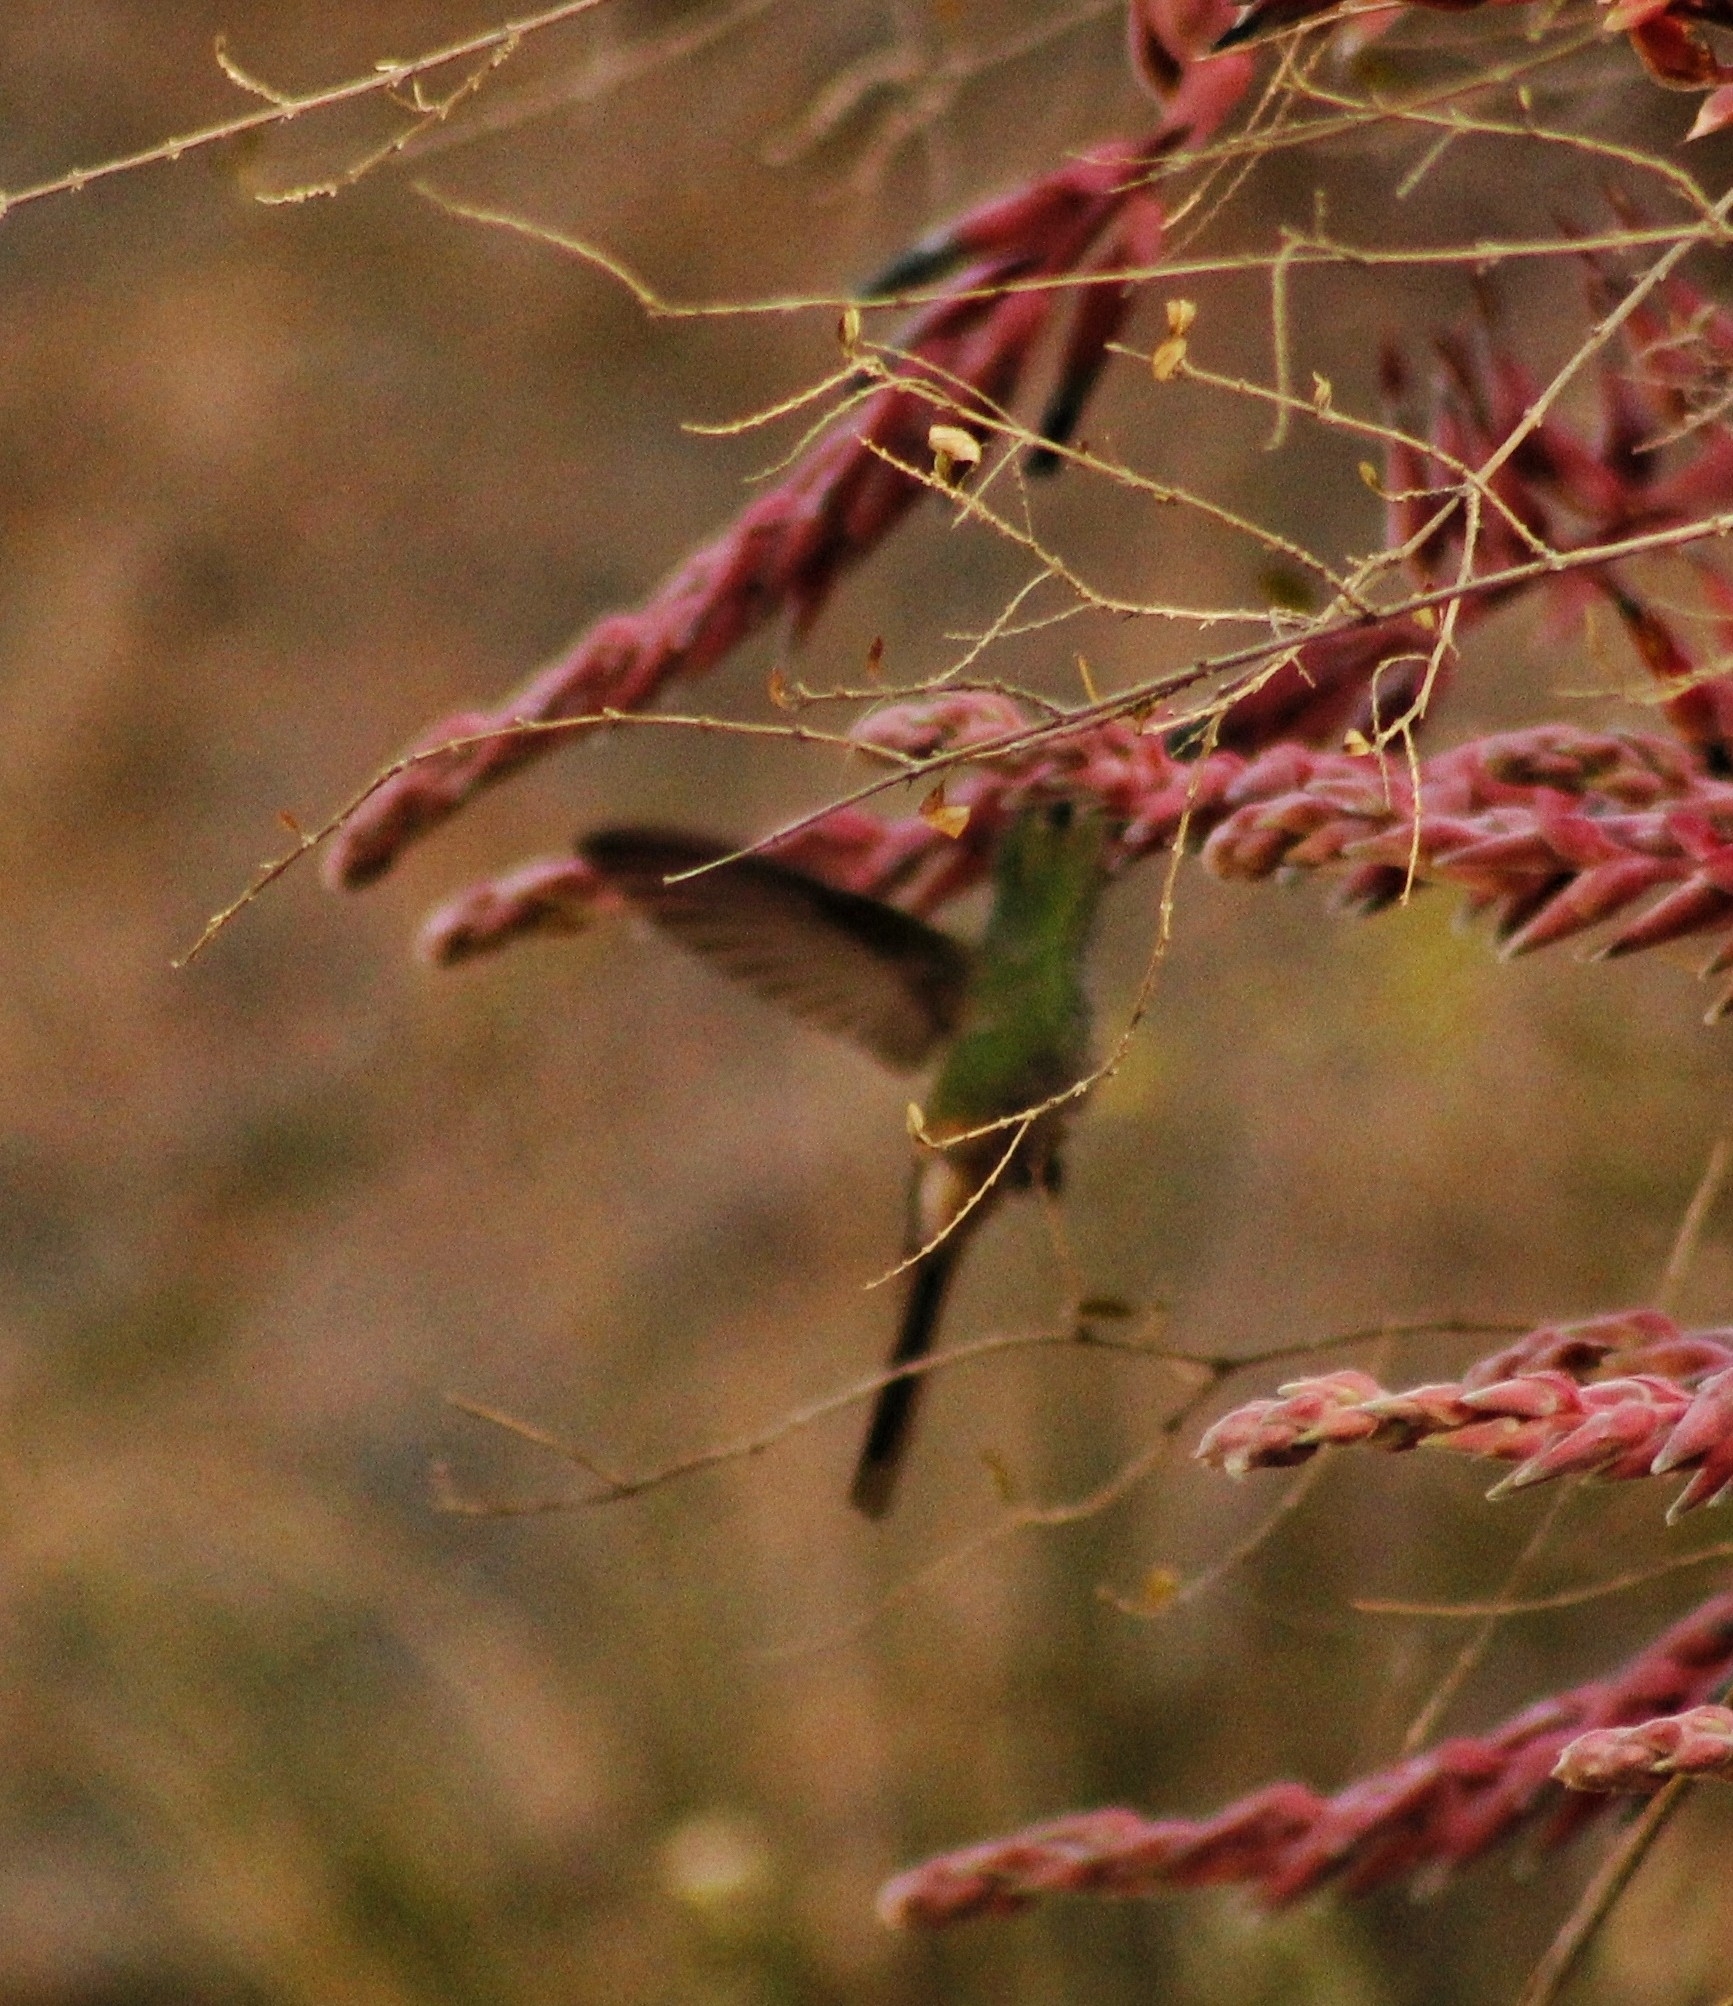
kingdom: Animalia
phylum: Chordata
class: Aves
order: Apodiformes
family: Trochilidae
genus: Sappho
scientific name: Sappho sparganurus
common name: Red-tailed comet
